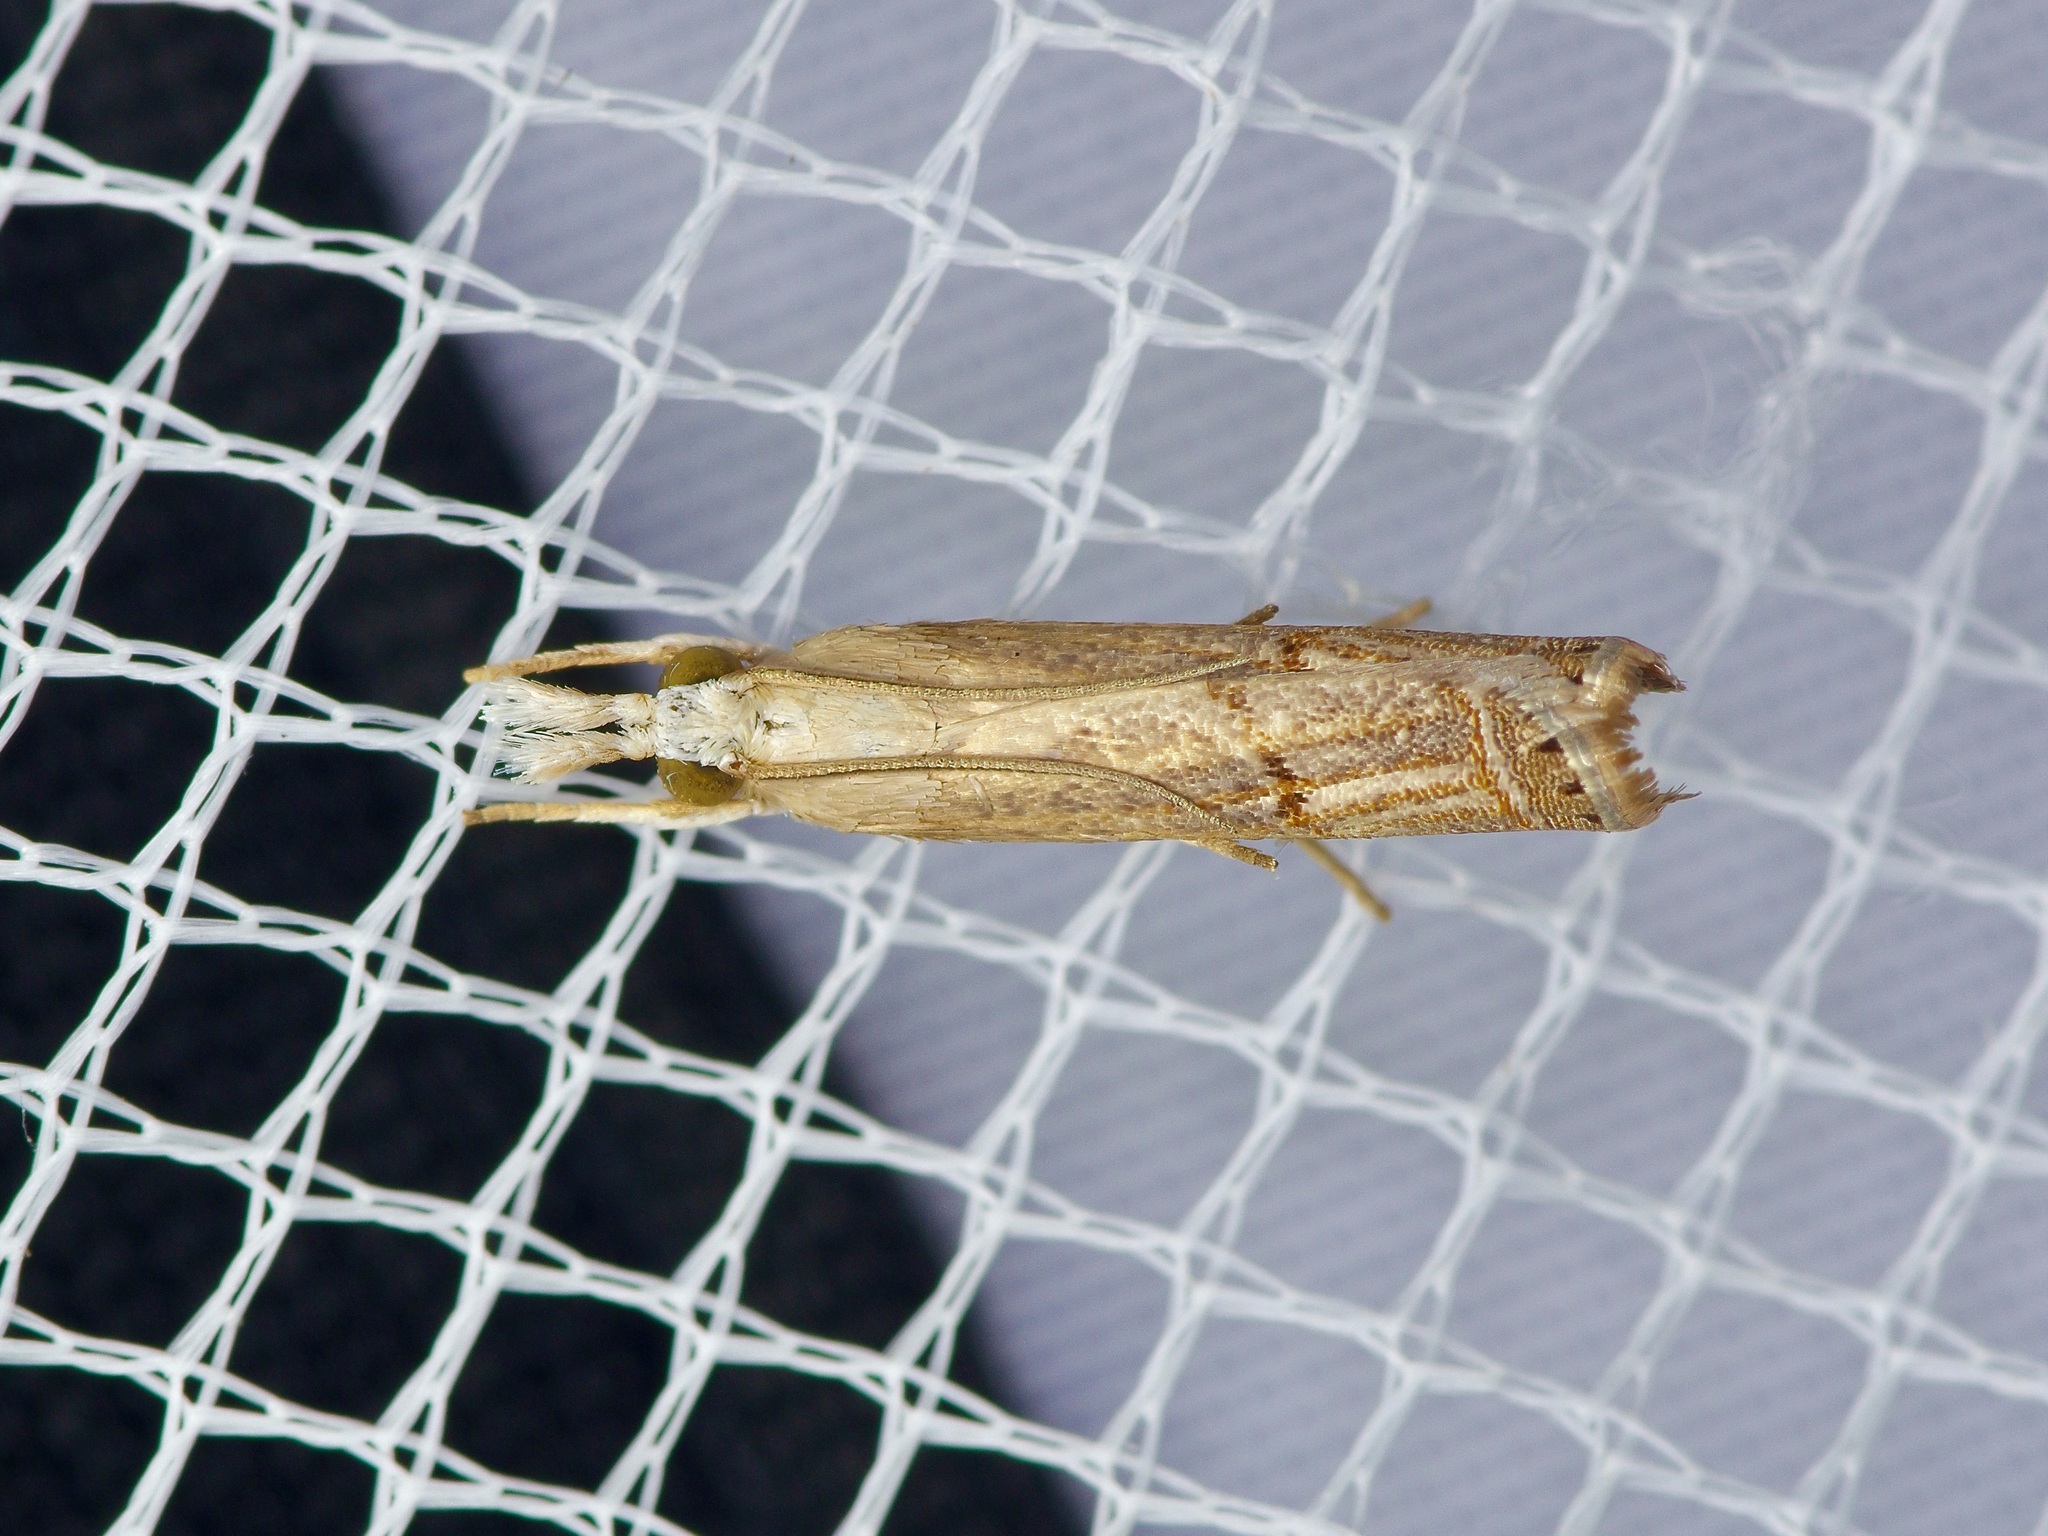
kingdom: Animalia
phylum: Arthropoda
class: Insecta
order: Lepidoptera
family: Crambidae
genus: Parapediasia
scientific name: Parapediasia teterellus
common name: Bluegrass webworm moth
